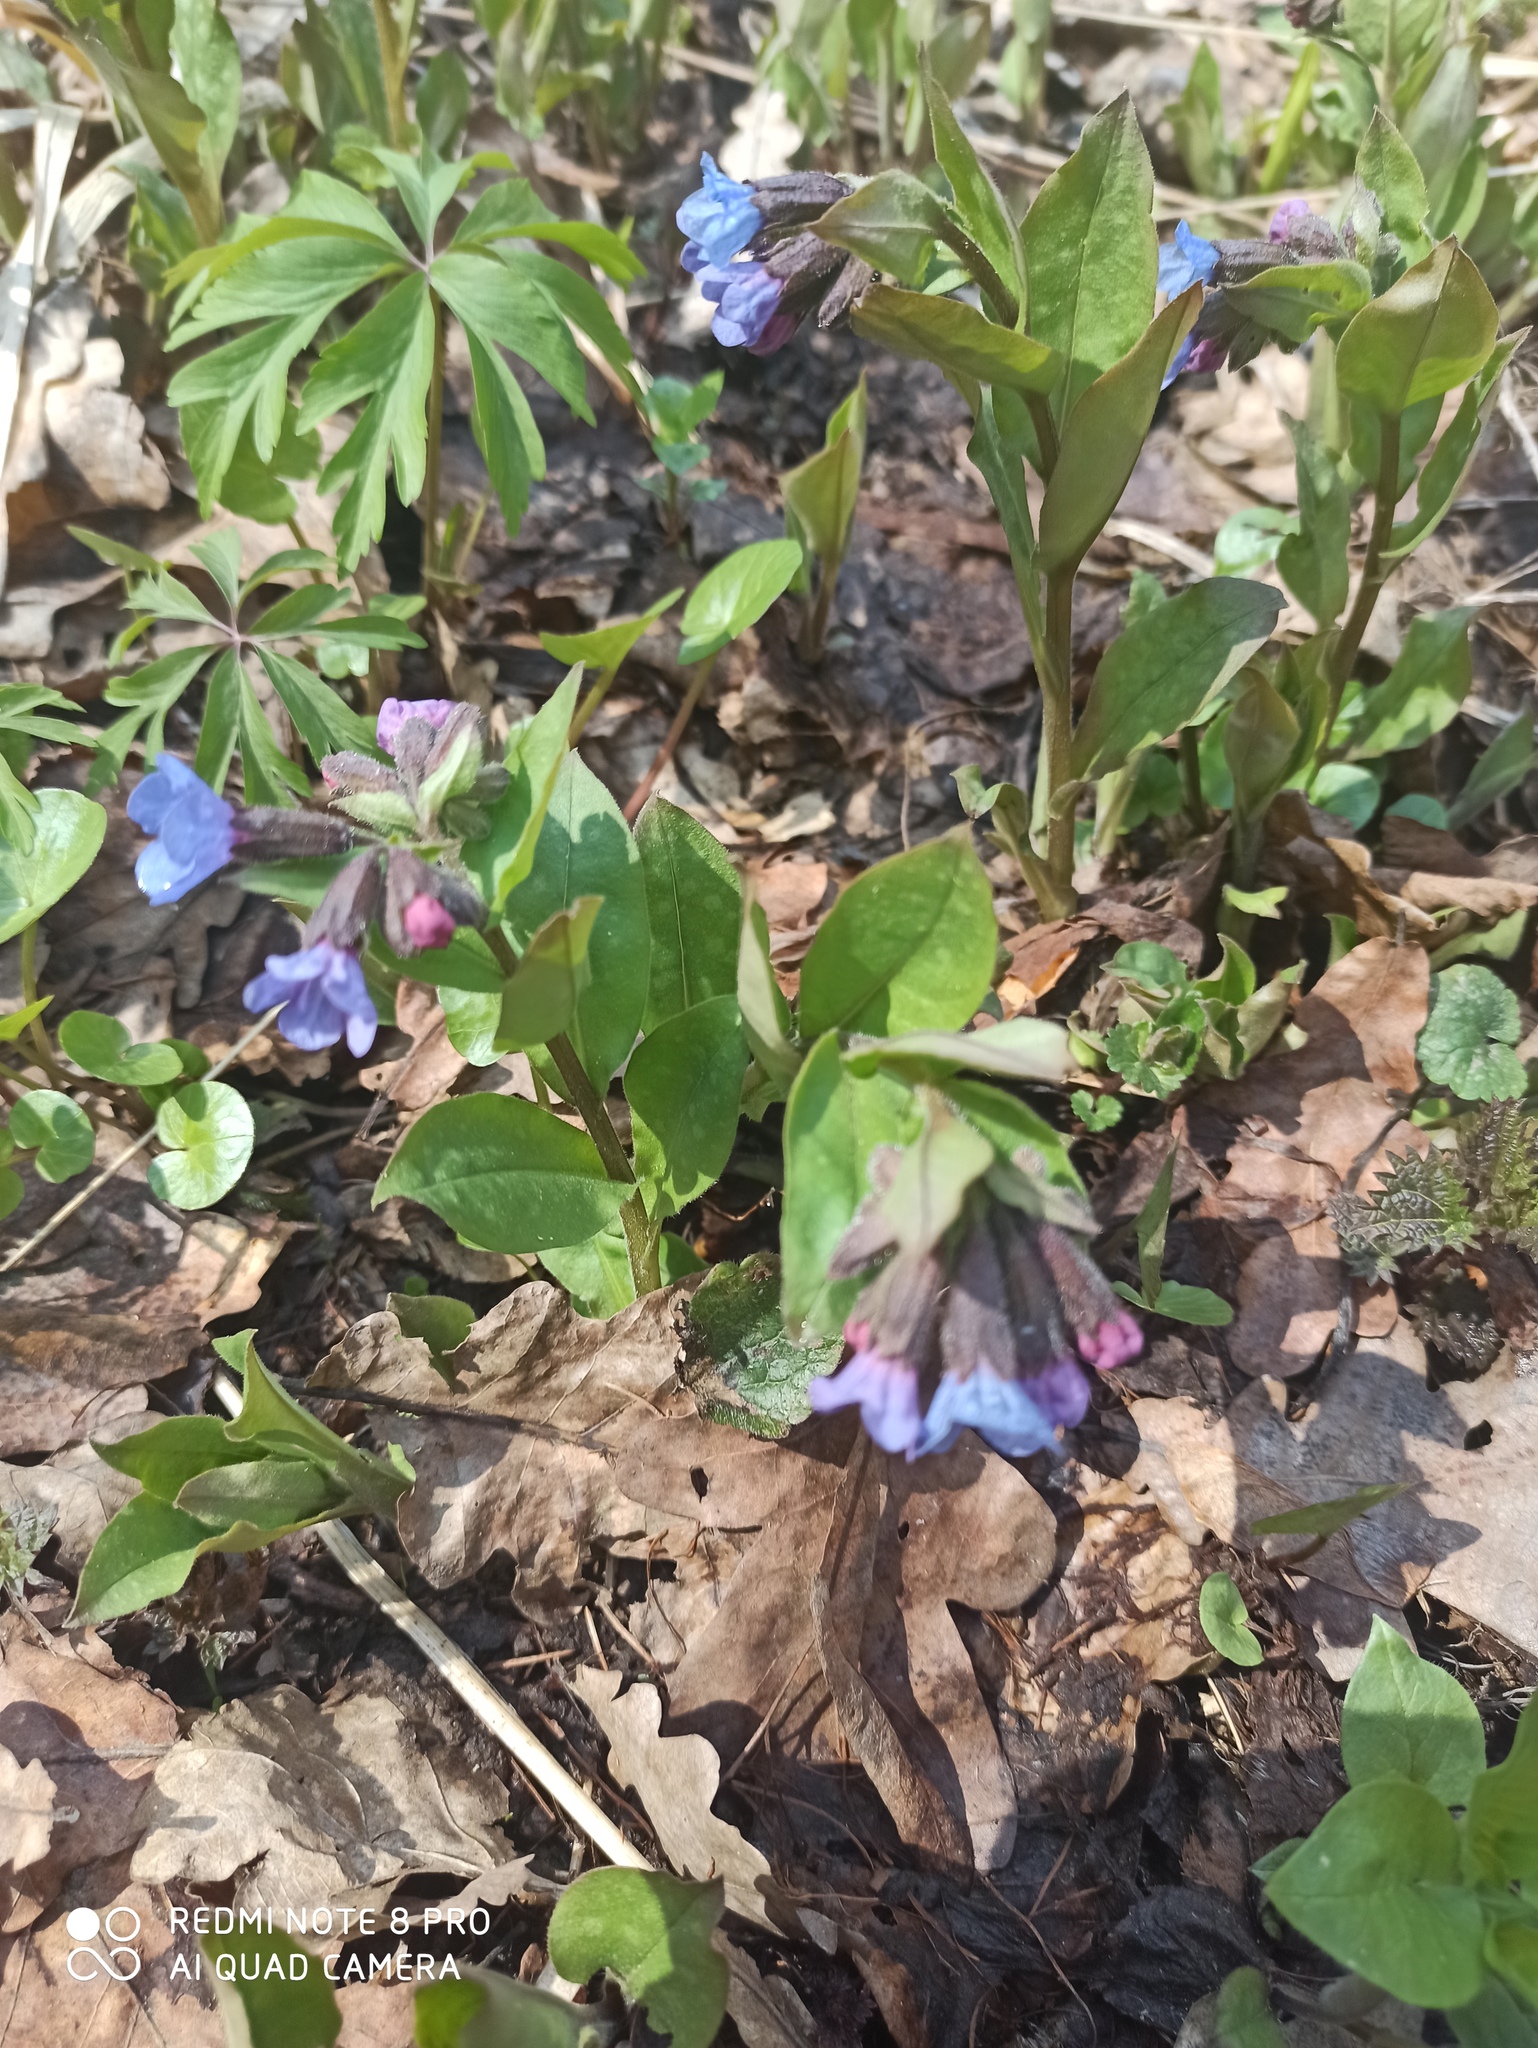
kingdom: Plantae
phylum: Tracheophyta
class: Magnoliopsida
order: Boraginales
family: Boraginaceae
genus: Pulmonaria
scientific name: Pulmonaria obscura
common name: Suffolk lungwort
